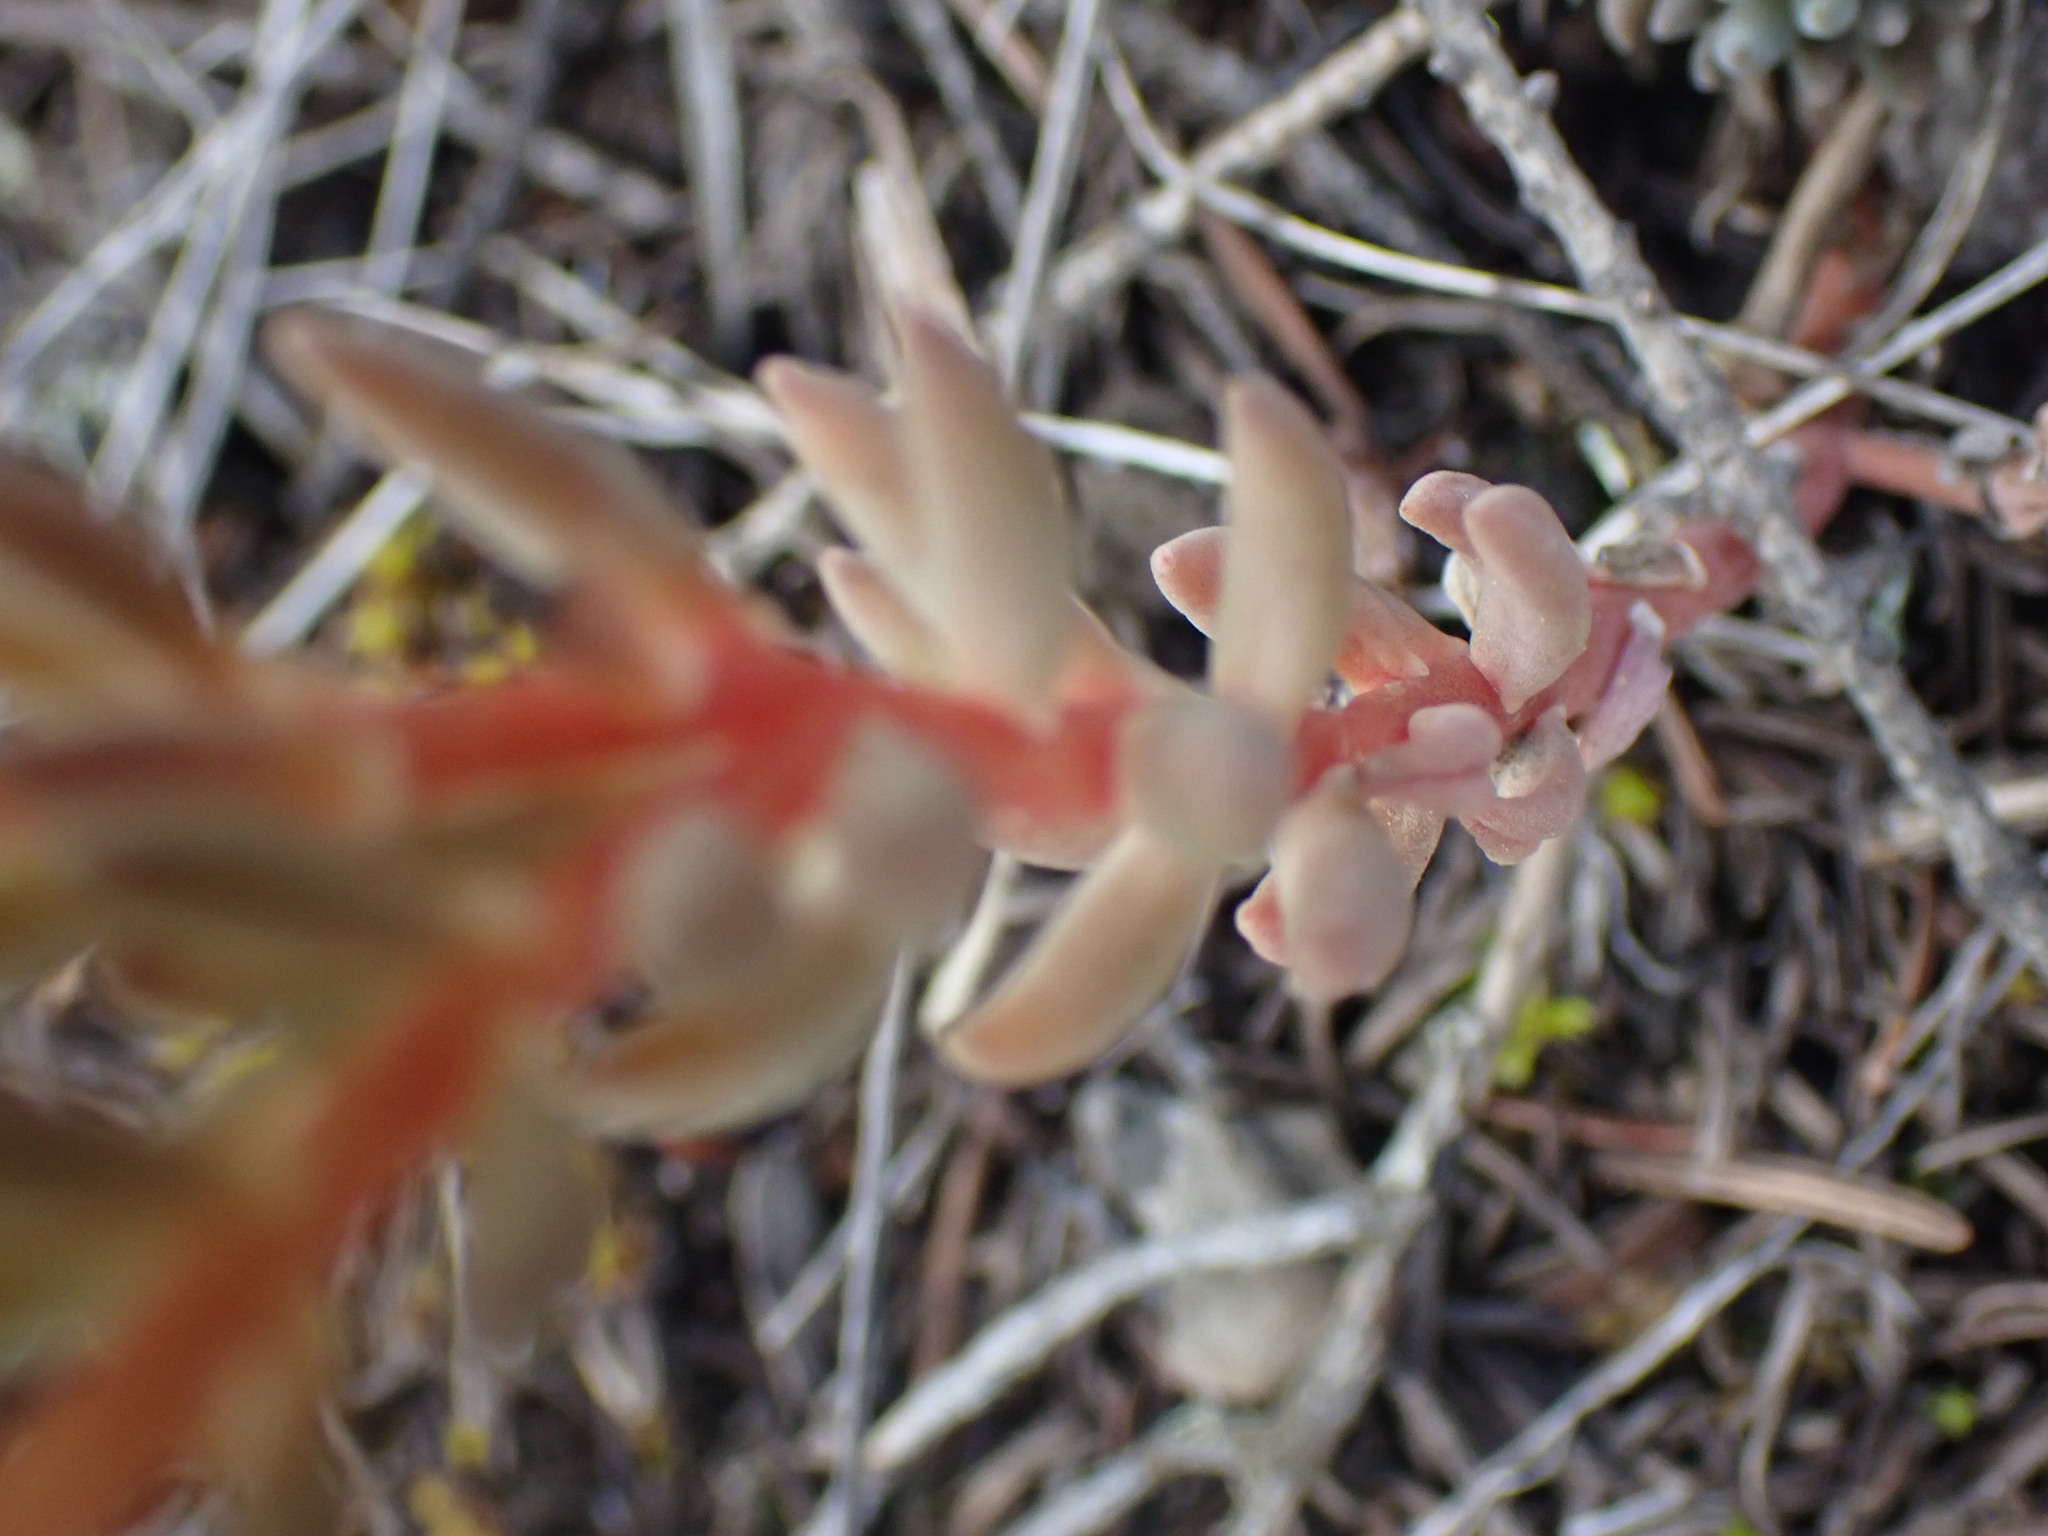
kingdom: Plantae
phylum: Tracheophyta
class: Magnoliopsida
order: Saxifragales
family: Crassulaceae
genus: Sedum
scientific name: Sedum lanceolatum
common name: Common stonecrop
